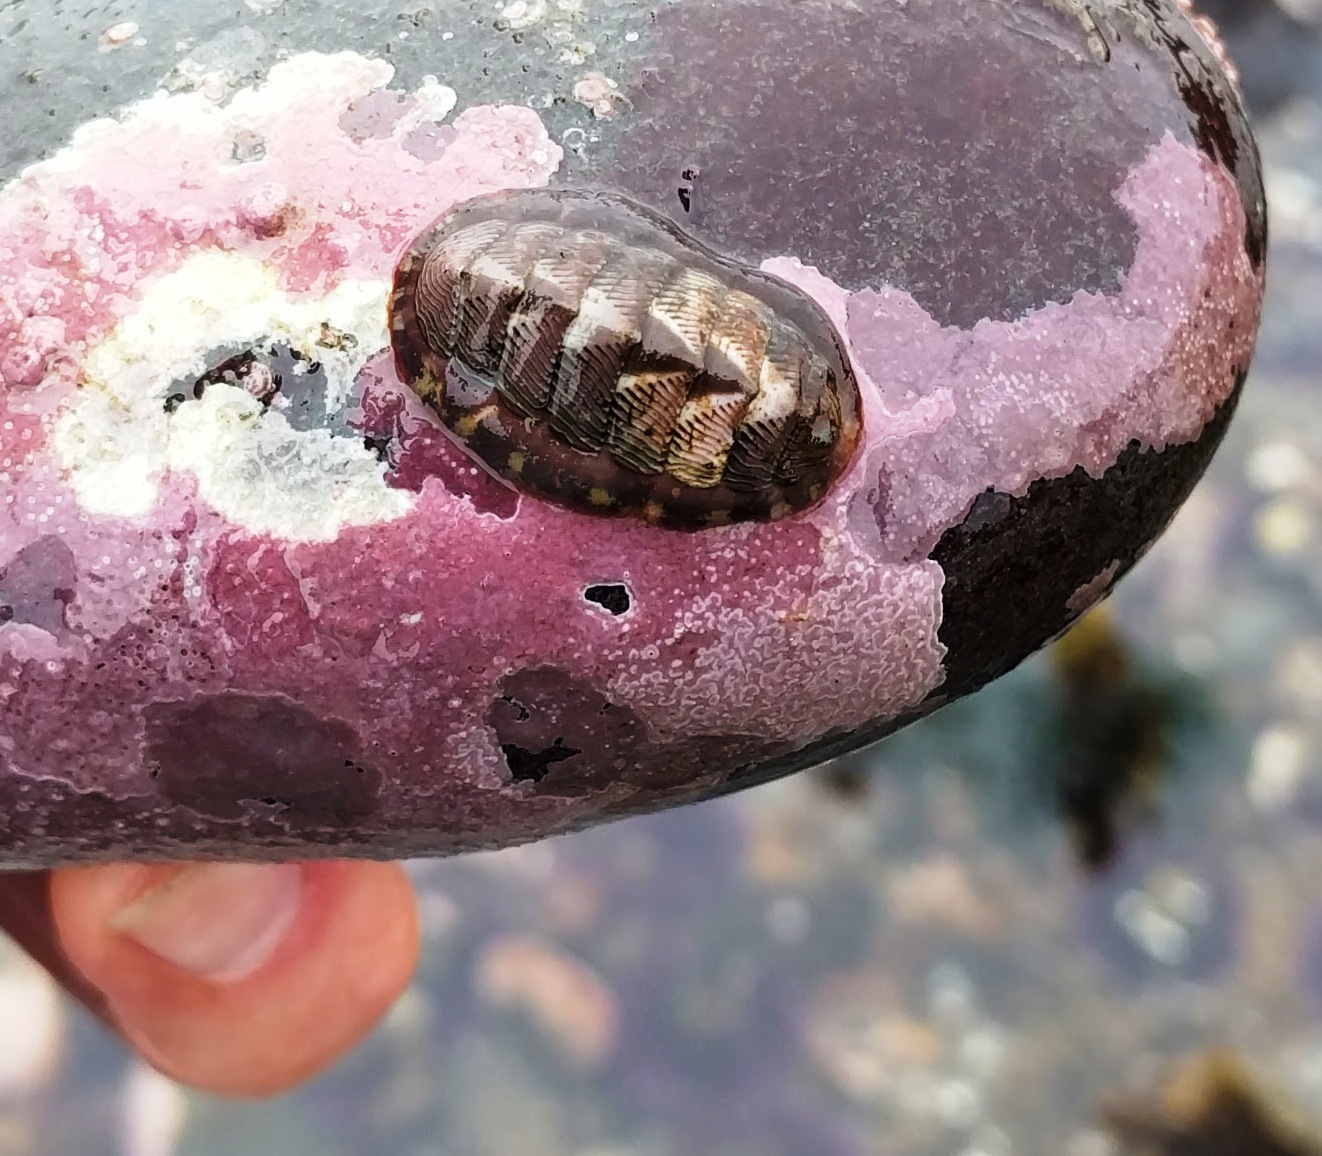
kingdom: Animalia
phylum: Mollusca
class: Polyplacophora
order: Chitonida
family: Tonicellidae
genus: Tonicella
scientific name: Tonicella lineata
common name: Lined chiton
